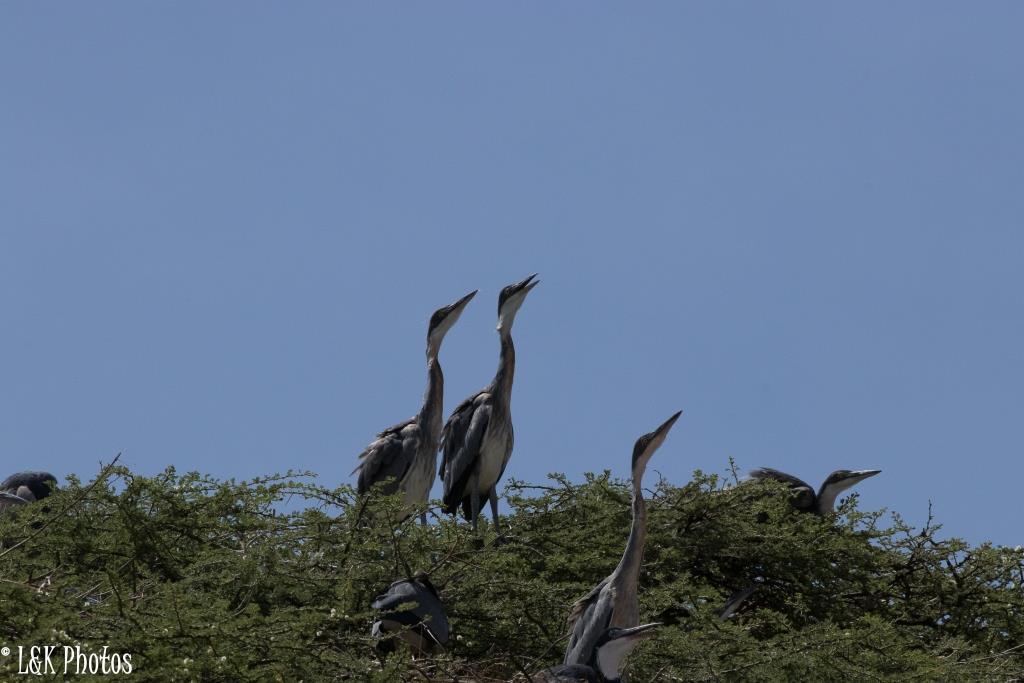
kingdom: Animalia
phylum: Chordata
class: Aves
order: Pelecaniformes
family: Ardeidae
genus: Ardea
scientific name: Ardea melanocephala
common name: Black-headed heron
